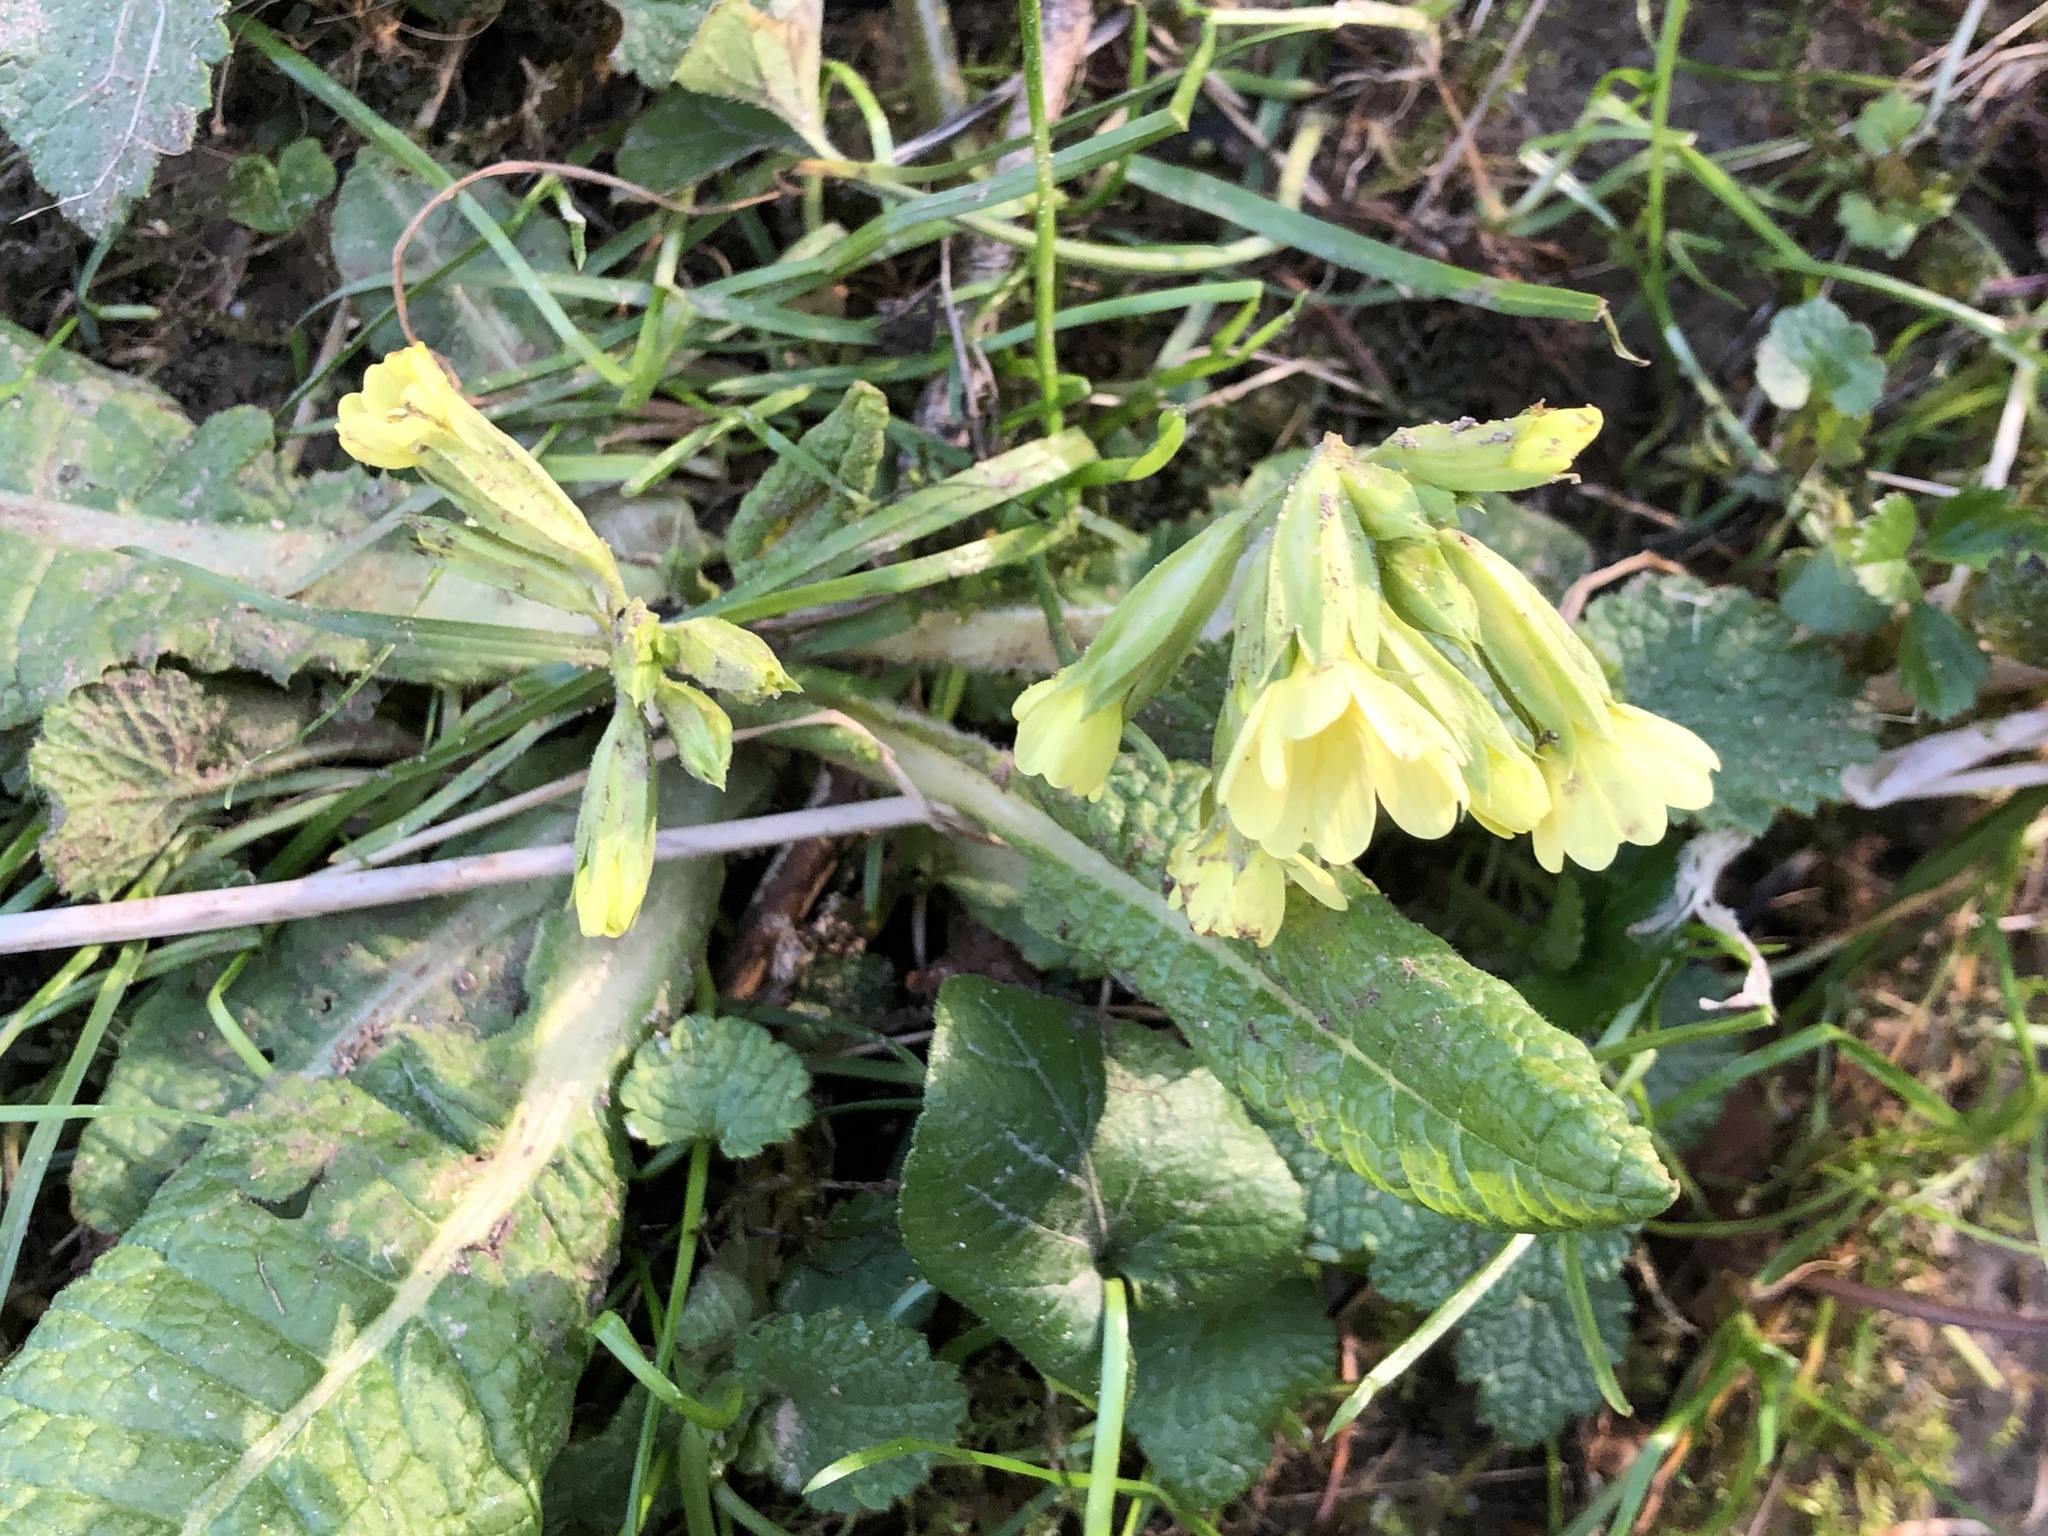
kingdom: Plantae
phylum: Tracheophyta
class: Magnoliopsida
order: Ericales
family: Primulaceae
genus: Primula
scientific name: Primula elatior
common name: Oxlip
